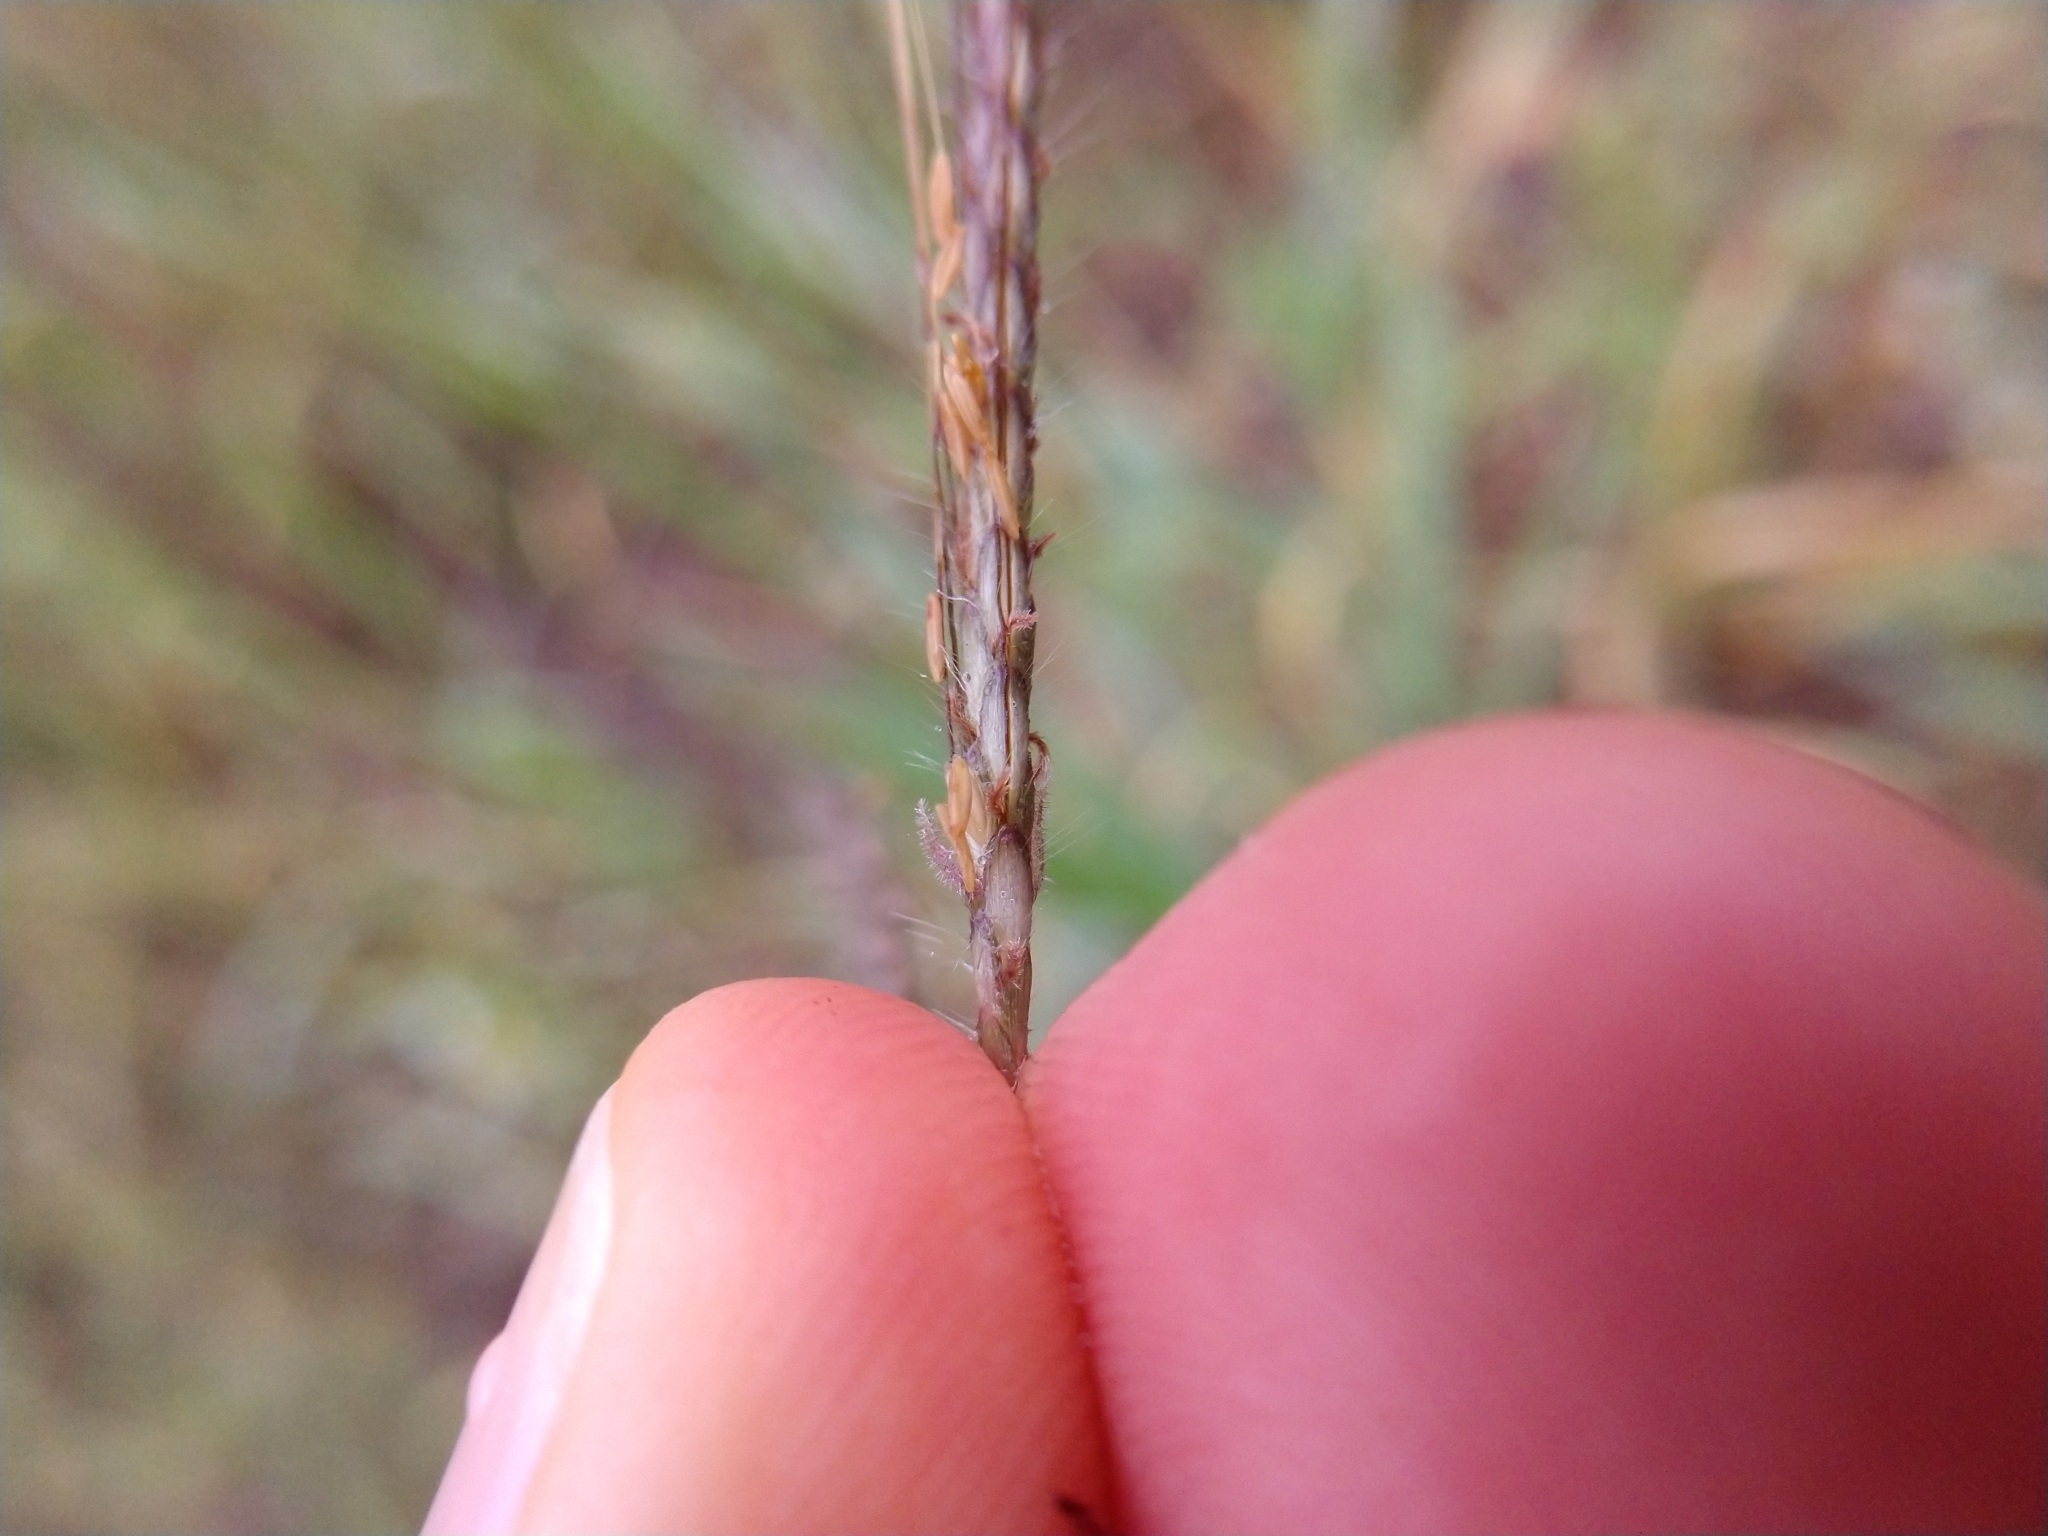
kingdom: Plantae
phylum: Tracheophyta
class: Liliopsida
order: Poales
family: Poaceae
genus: Dichanthium
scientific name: Dichanthium annulatum
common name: Kleberg's bluestem
